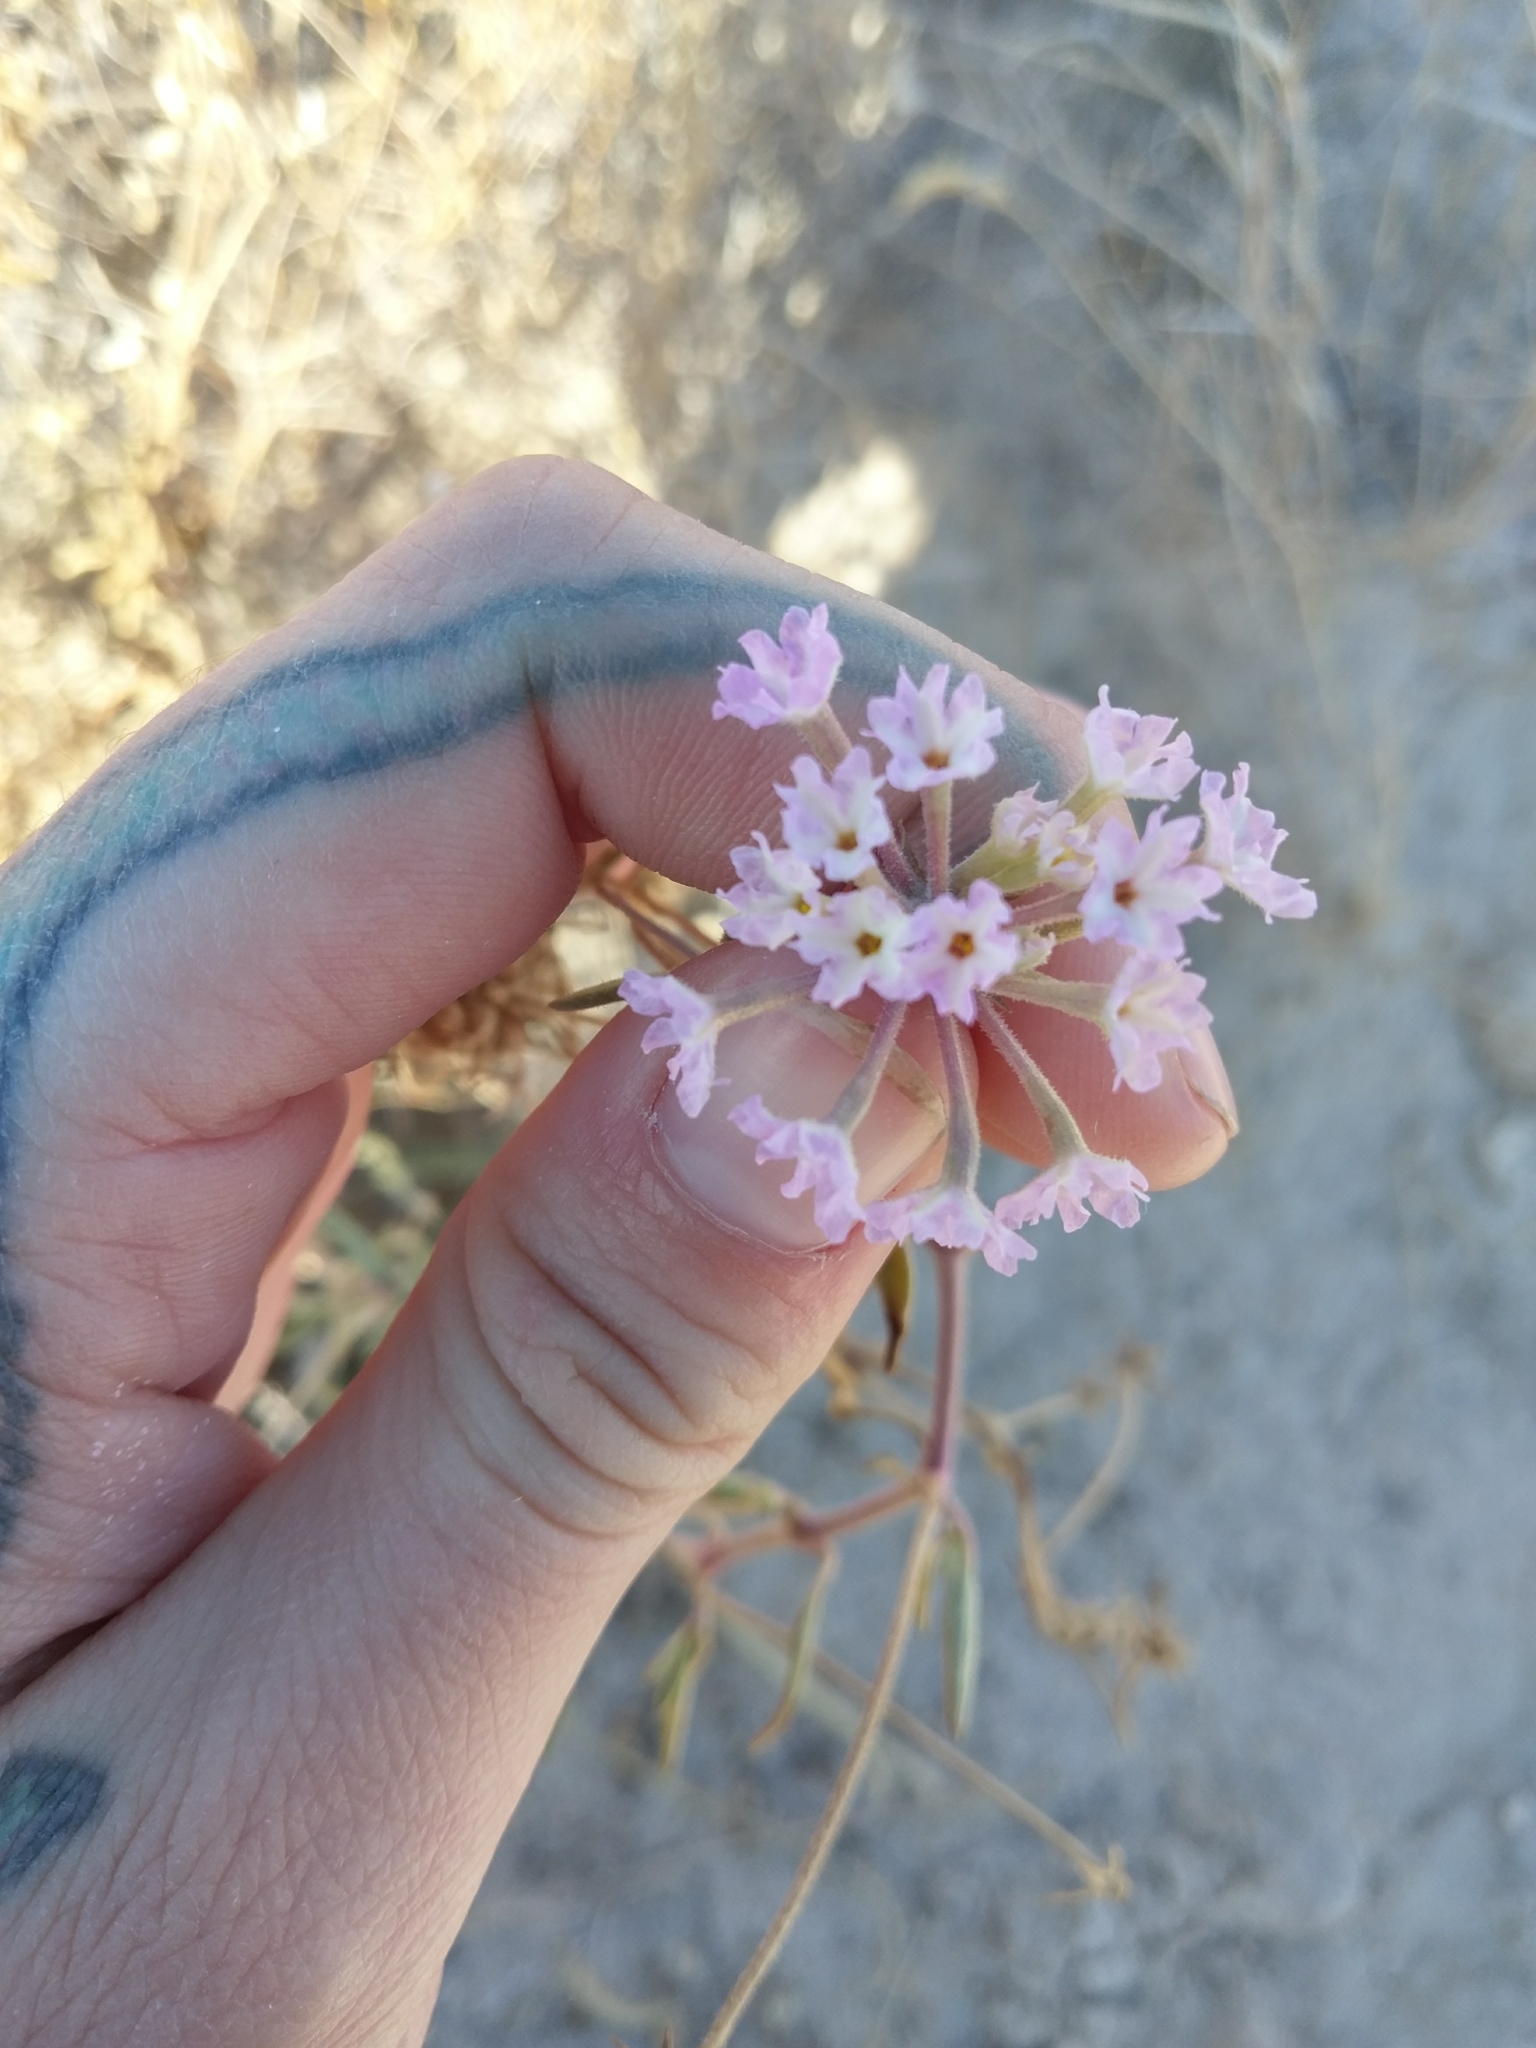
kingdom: Plantae
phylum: Tracheophyta
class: Magnoliopsida
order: Caryophyllales
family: Nyctaginaceae
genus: Abronia
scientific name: Abronia angustifolia
